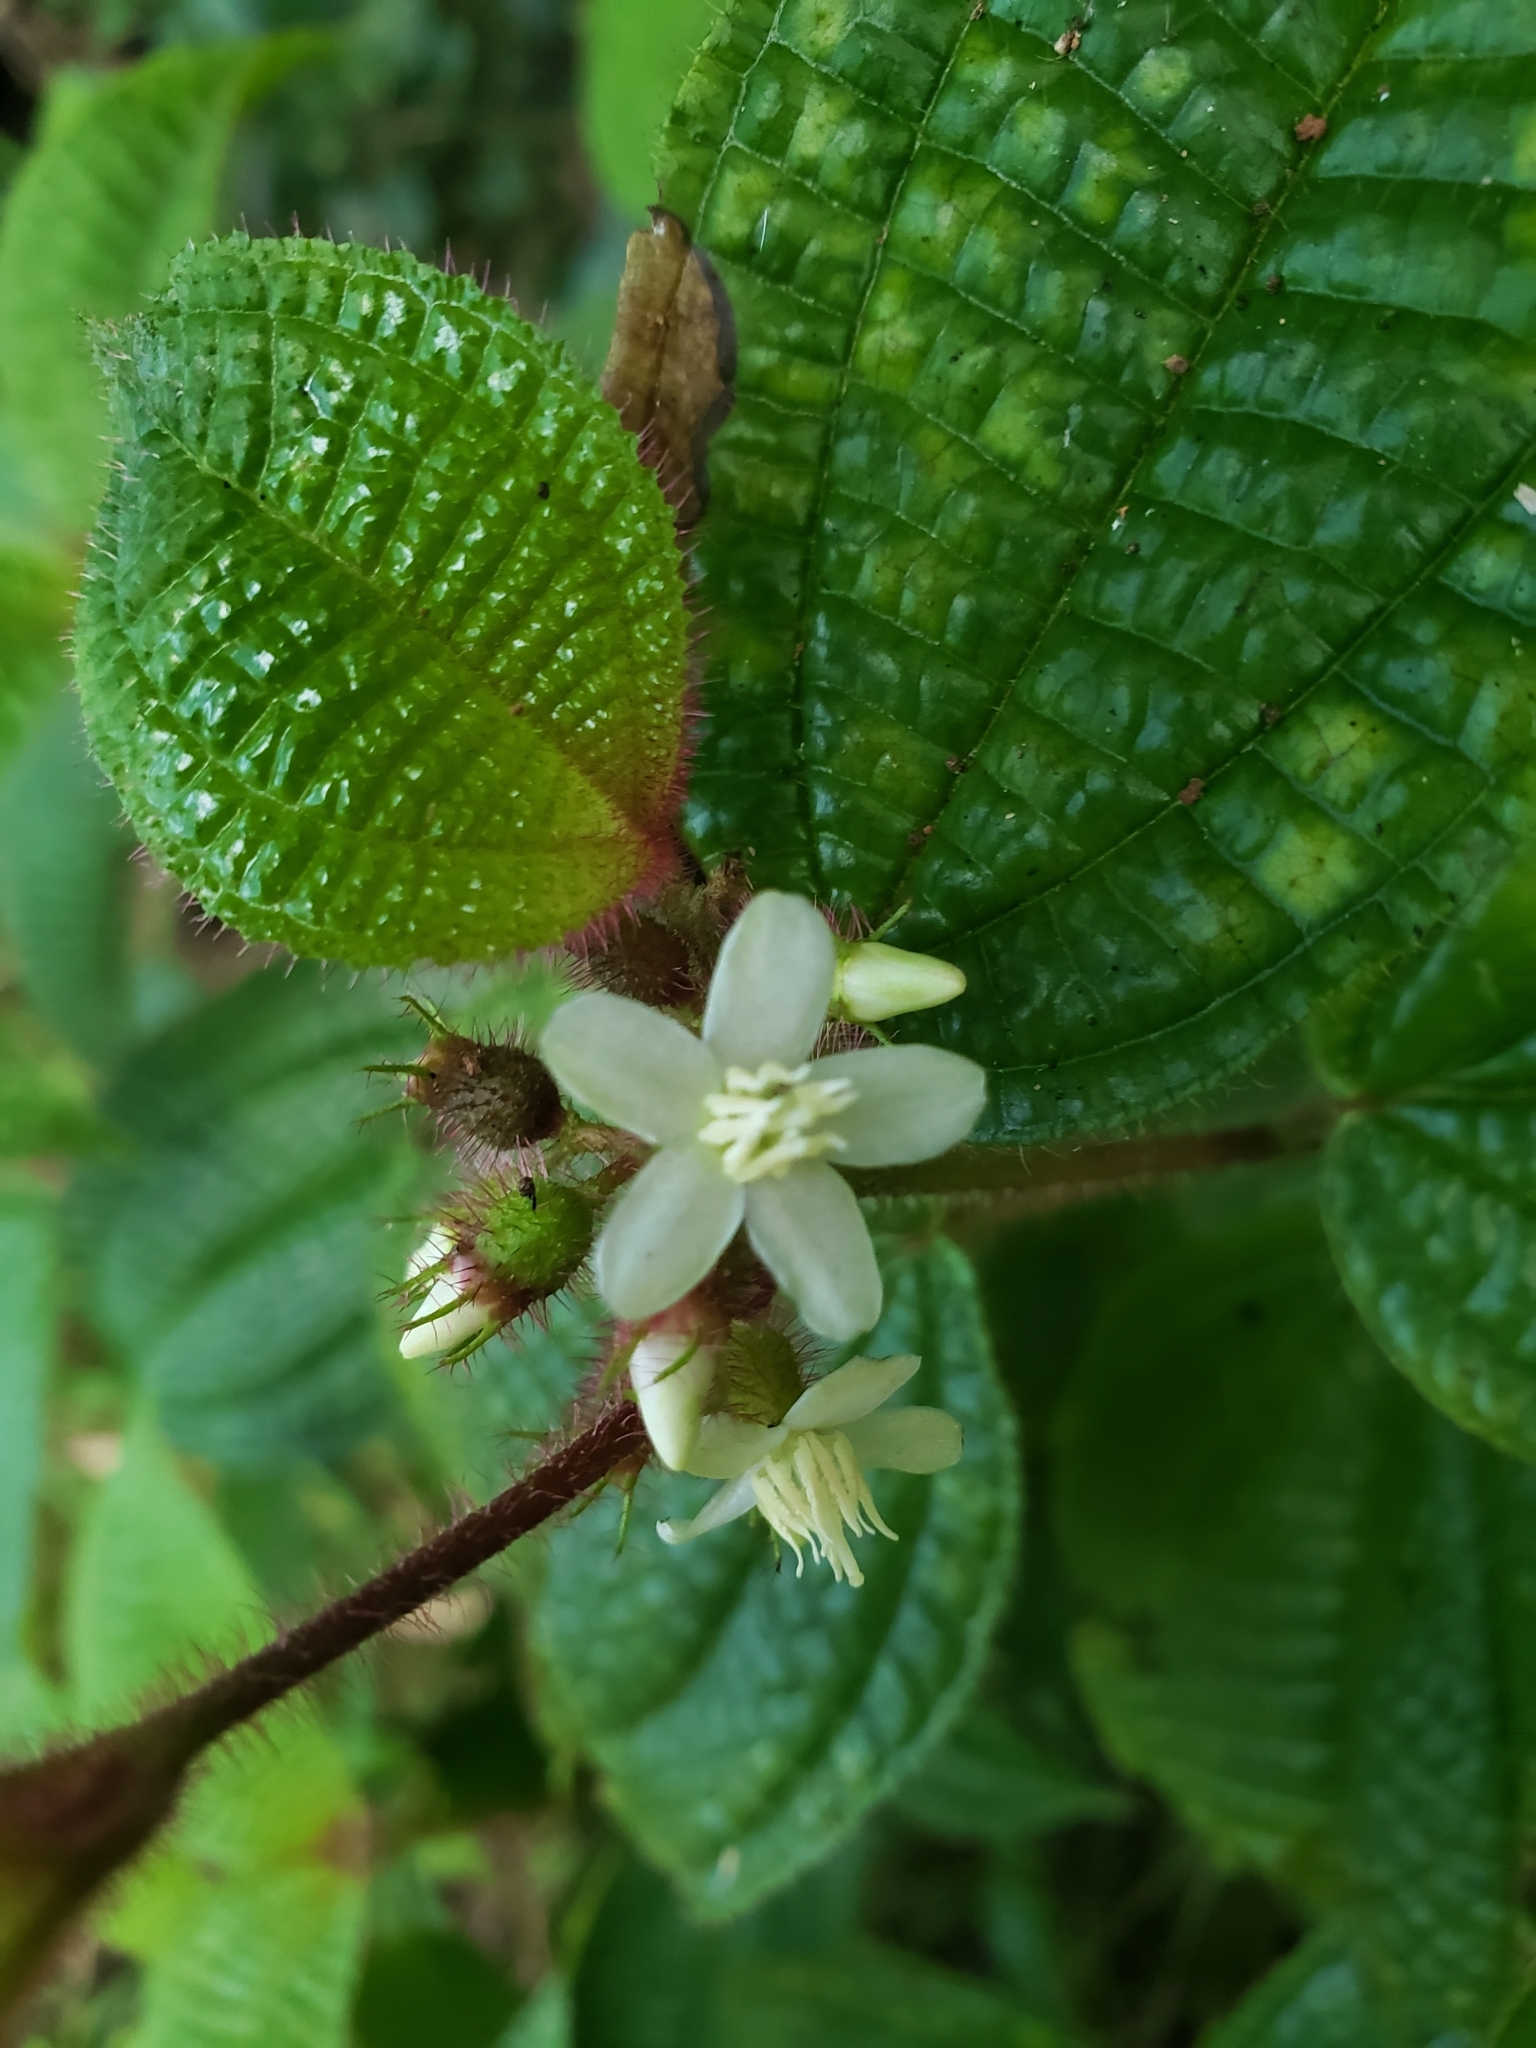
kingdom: Plantae
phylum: Tracheophyta
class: Magnoliopsida
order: Myrtales
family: Melastomataceae
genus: Miconia
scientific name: Miconia crenata
